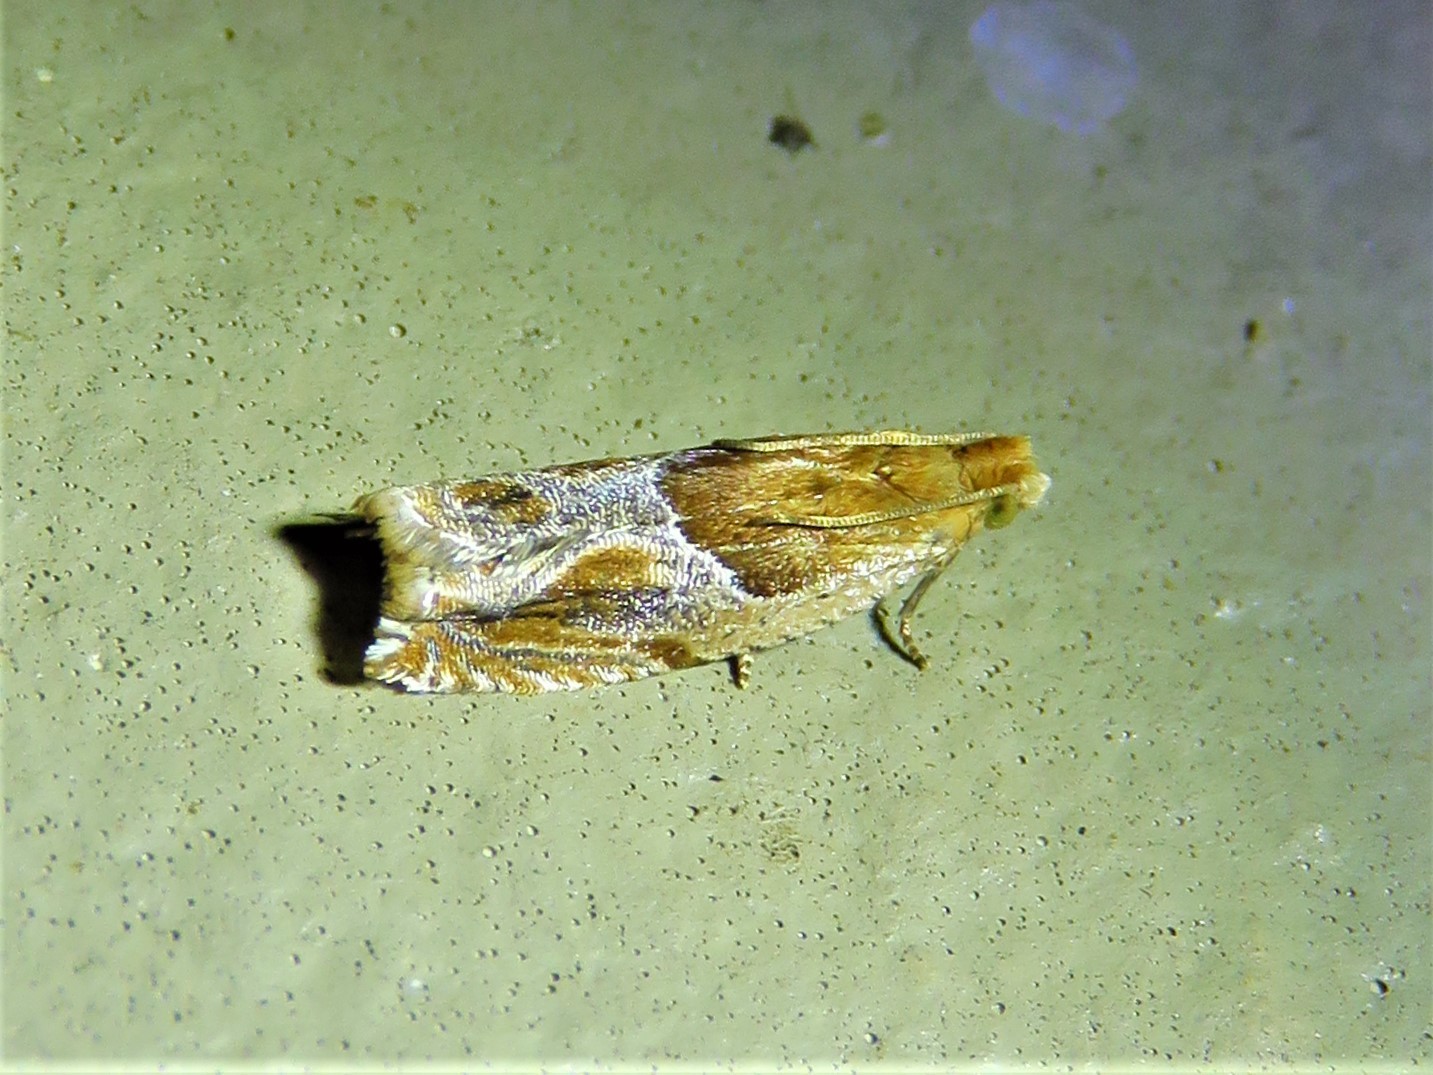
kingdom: Animalia
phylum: Arthropoda
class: Insecta
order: Lepidoptera
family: Tortricidae
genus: Ancylis
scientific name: Ancylis comptana
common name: Little roller
